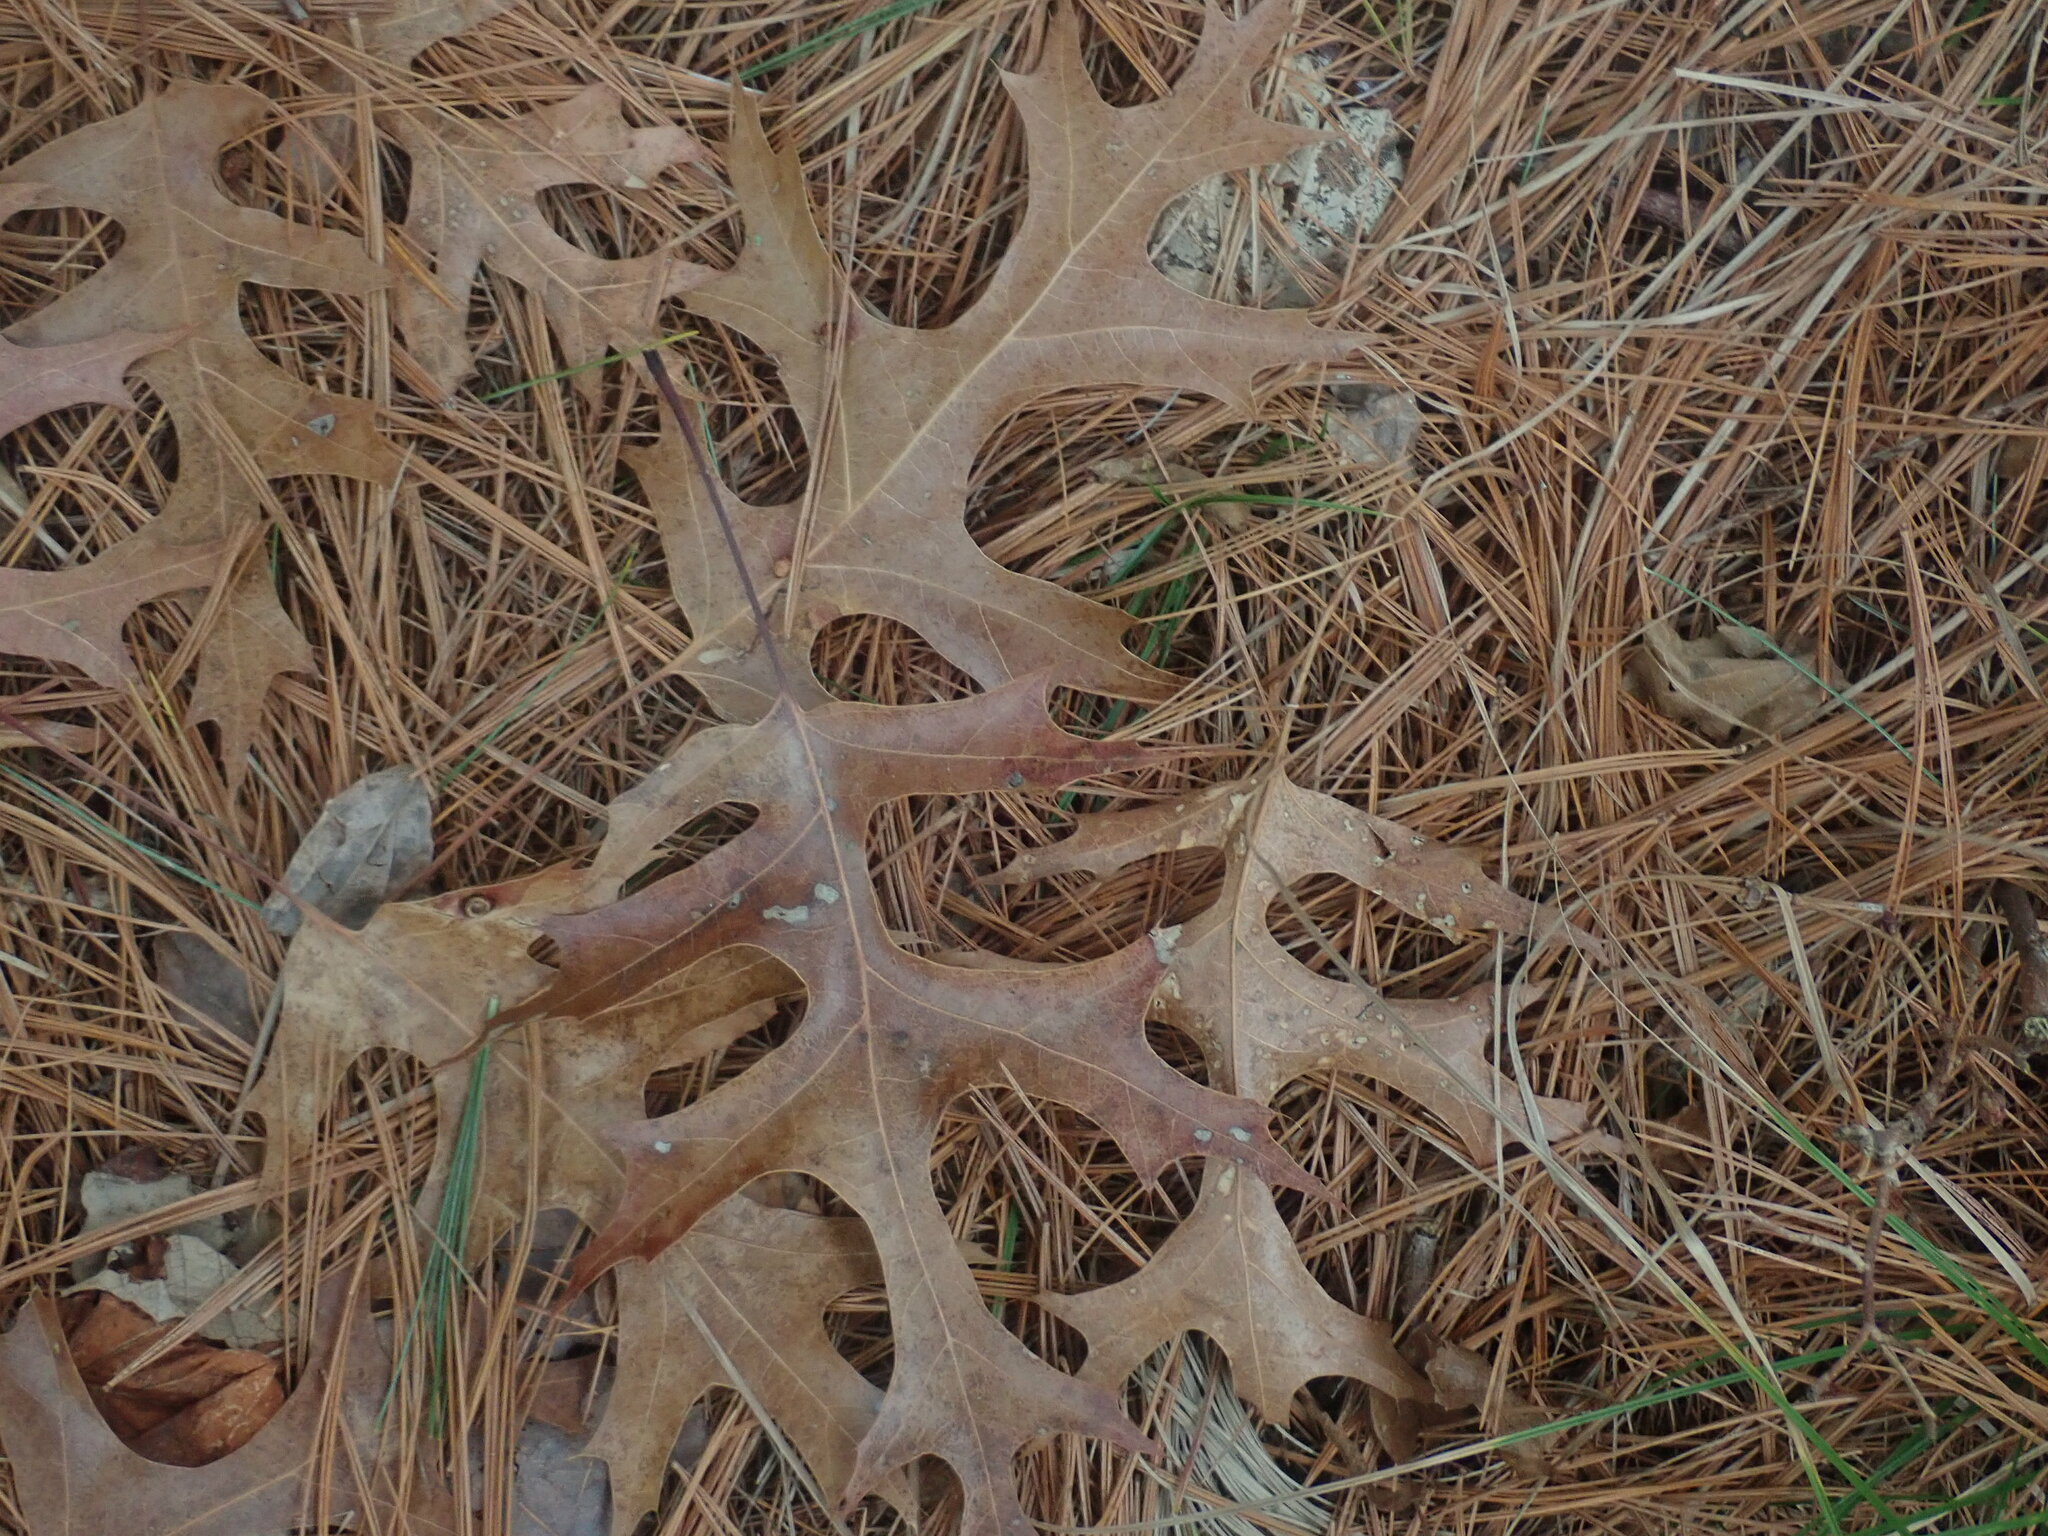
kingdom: Plantae
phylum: Tracheophyta
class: Magnoliopsida
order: Fagales
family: Fagaceae
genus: Quercus
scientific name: Quercus coccinea
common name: Scarlet oak
